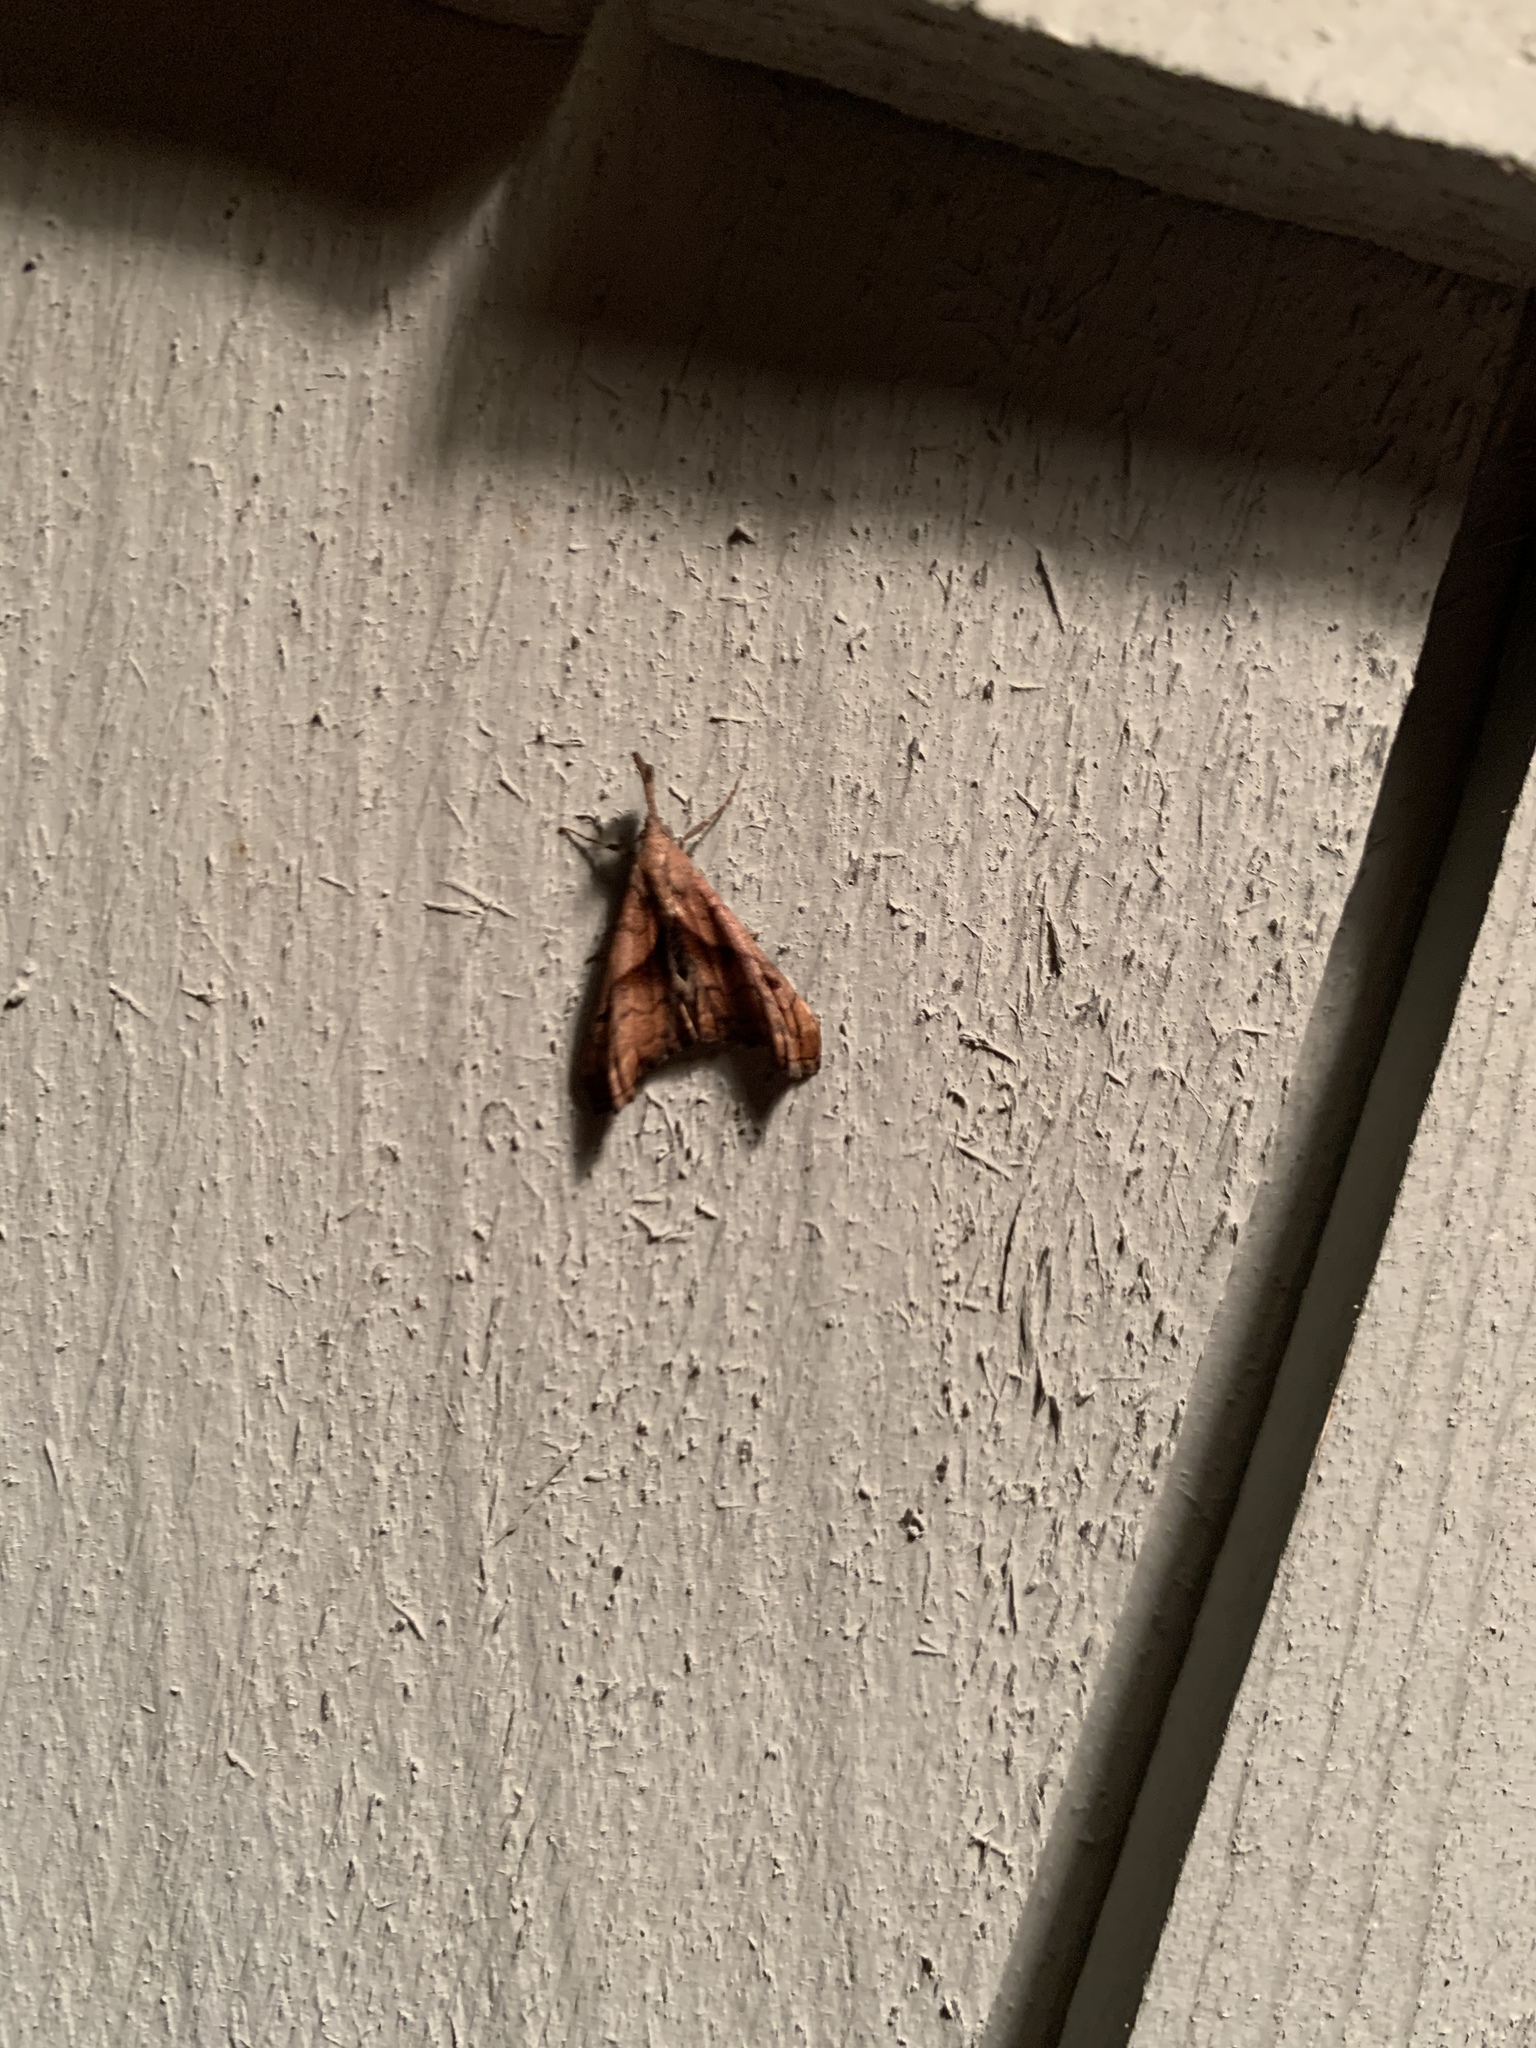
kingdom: Animalia
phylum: Arthropoda
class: Insecta
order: Lepidoptera
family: Erebidae
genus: Palthis
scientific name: Palthis angulalis
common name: Dark-spotted palthis moth
